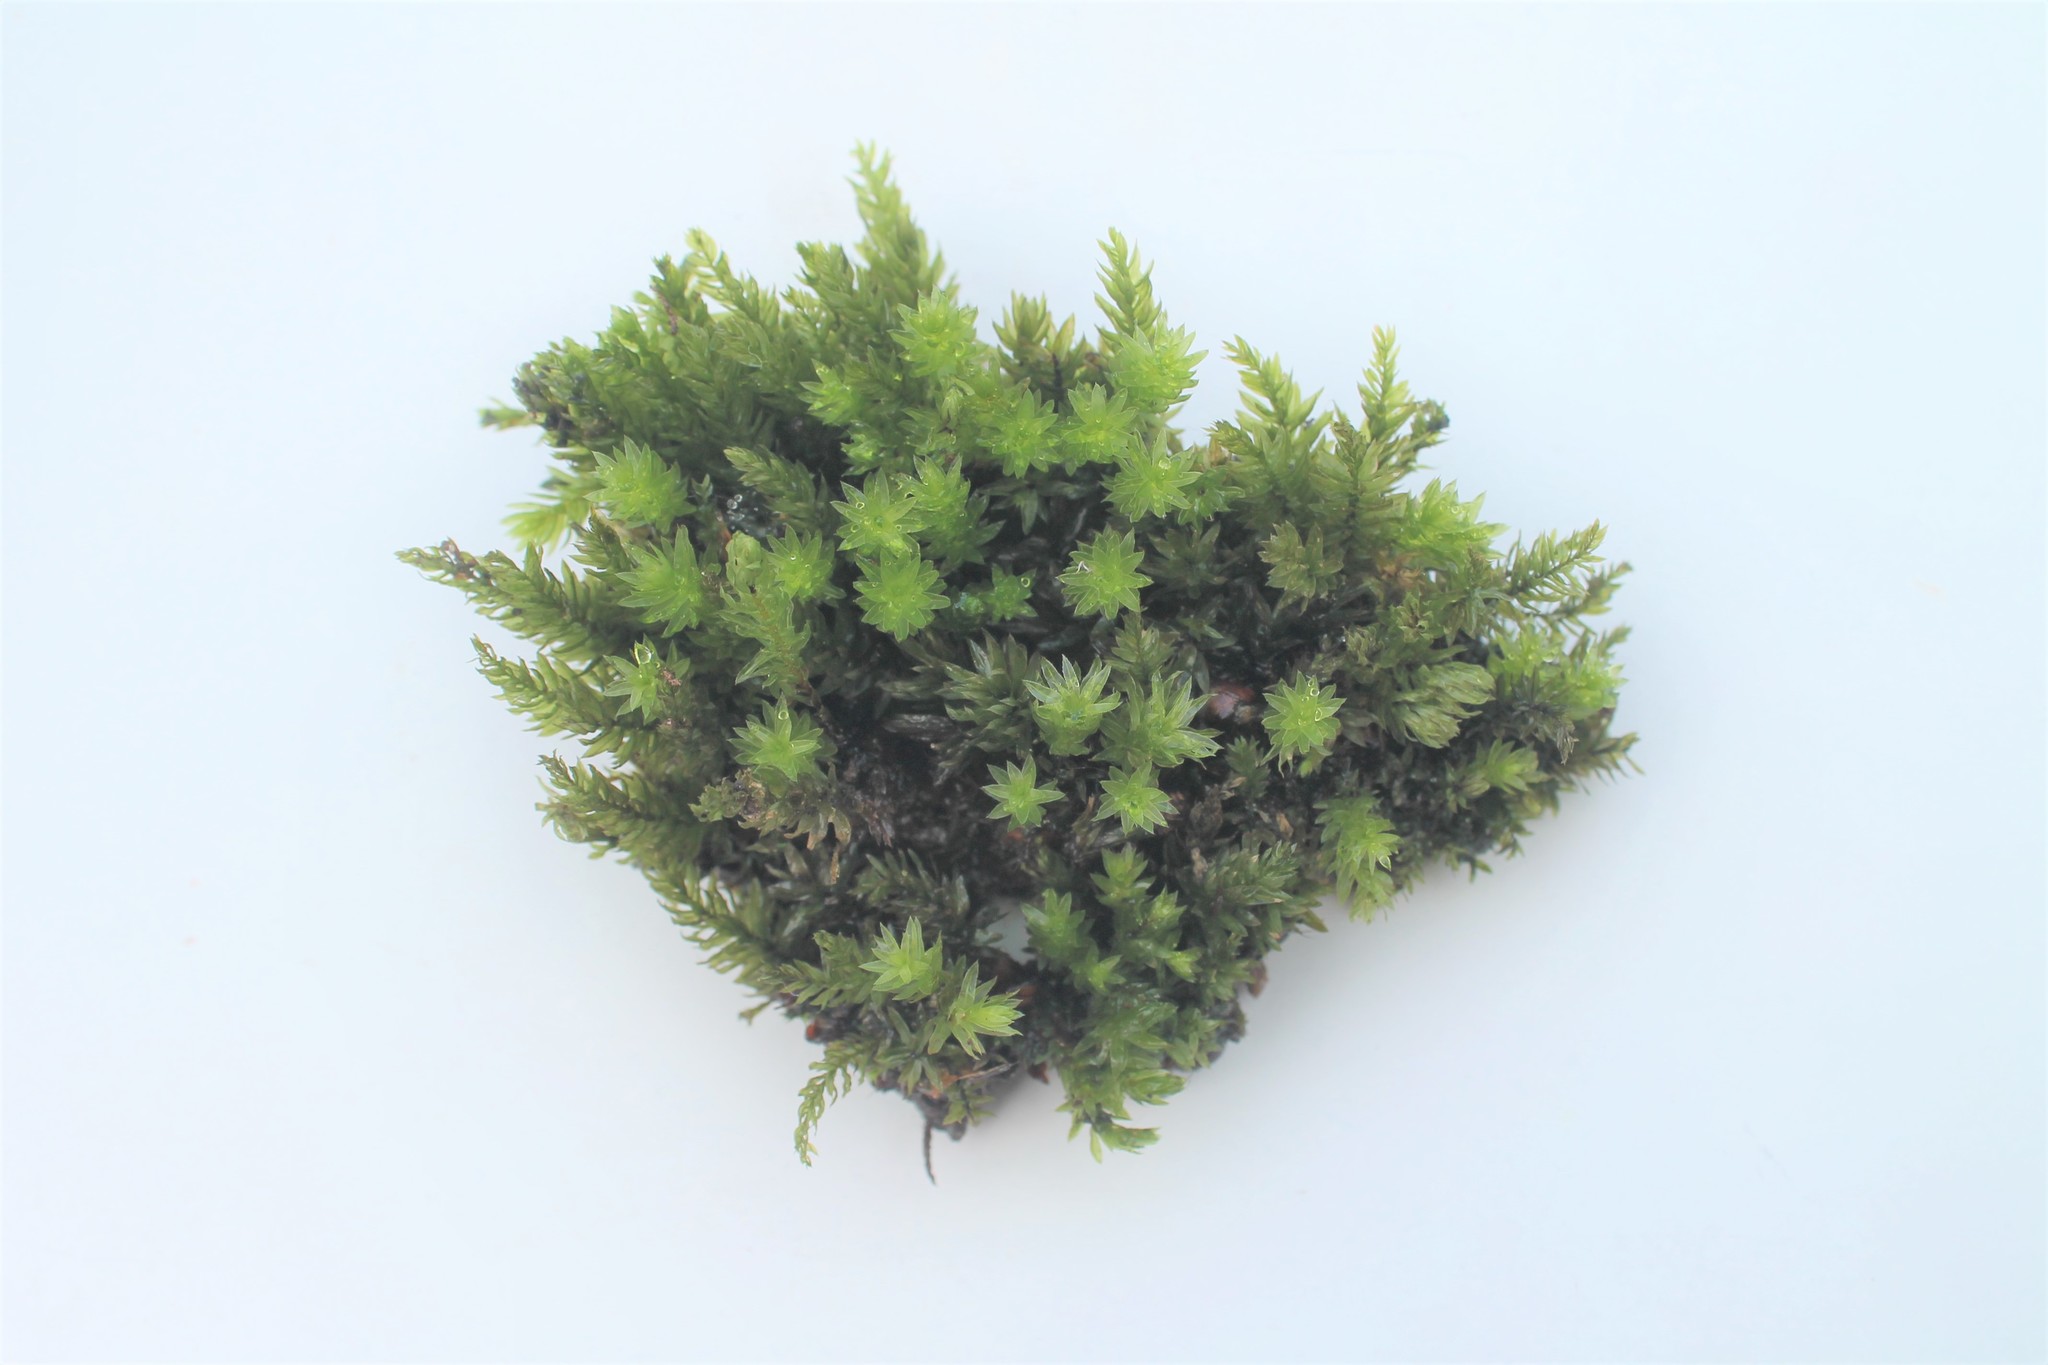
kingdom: Plantae
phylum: Bryophyta
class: Bryopsida
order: Bryales
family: Mniaceae
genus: Mnium
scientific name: Mnium hornum
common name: Swan's-neck leafy moss
